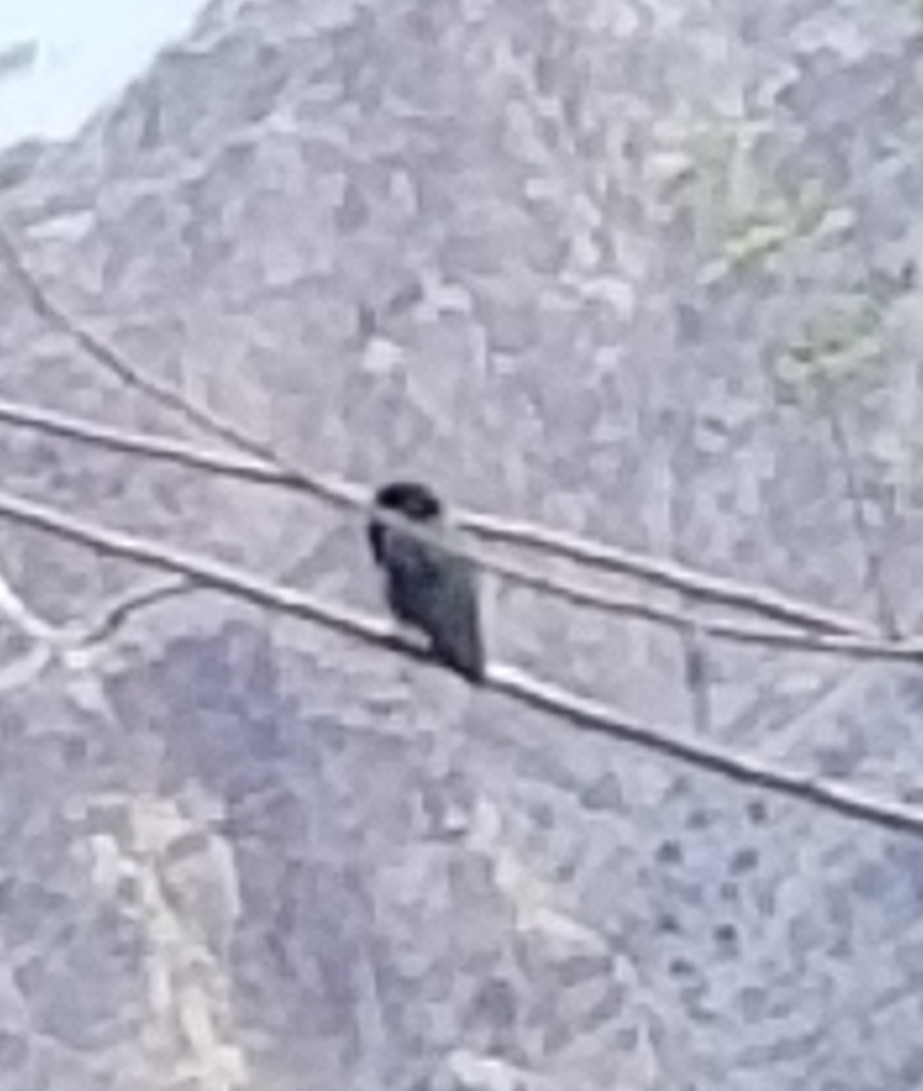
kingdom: Animalia
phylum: Chordata
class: Aves
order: Apodiformes
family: Trochilidae
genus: Calypte
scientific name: Calypte costae
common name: Costa's hummingbird
